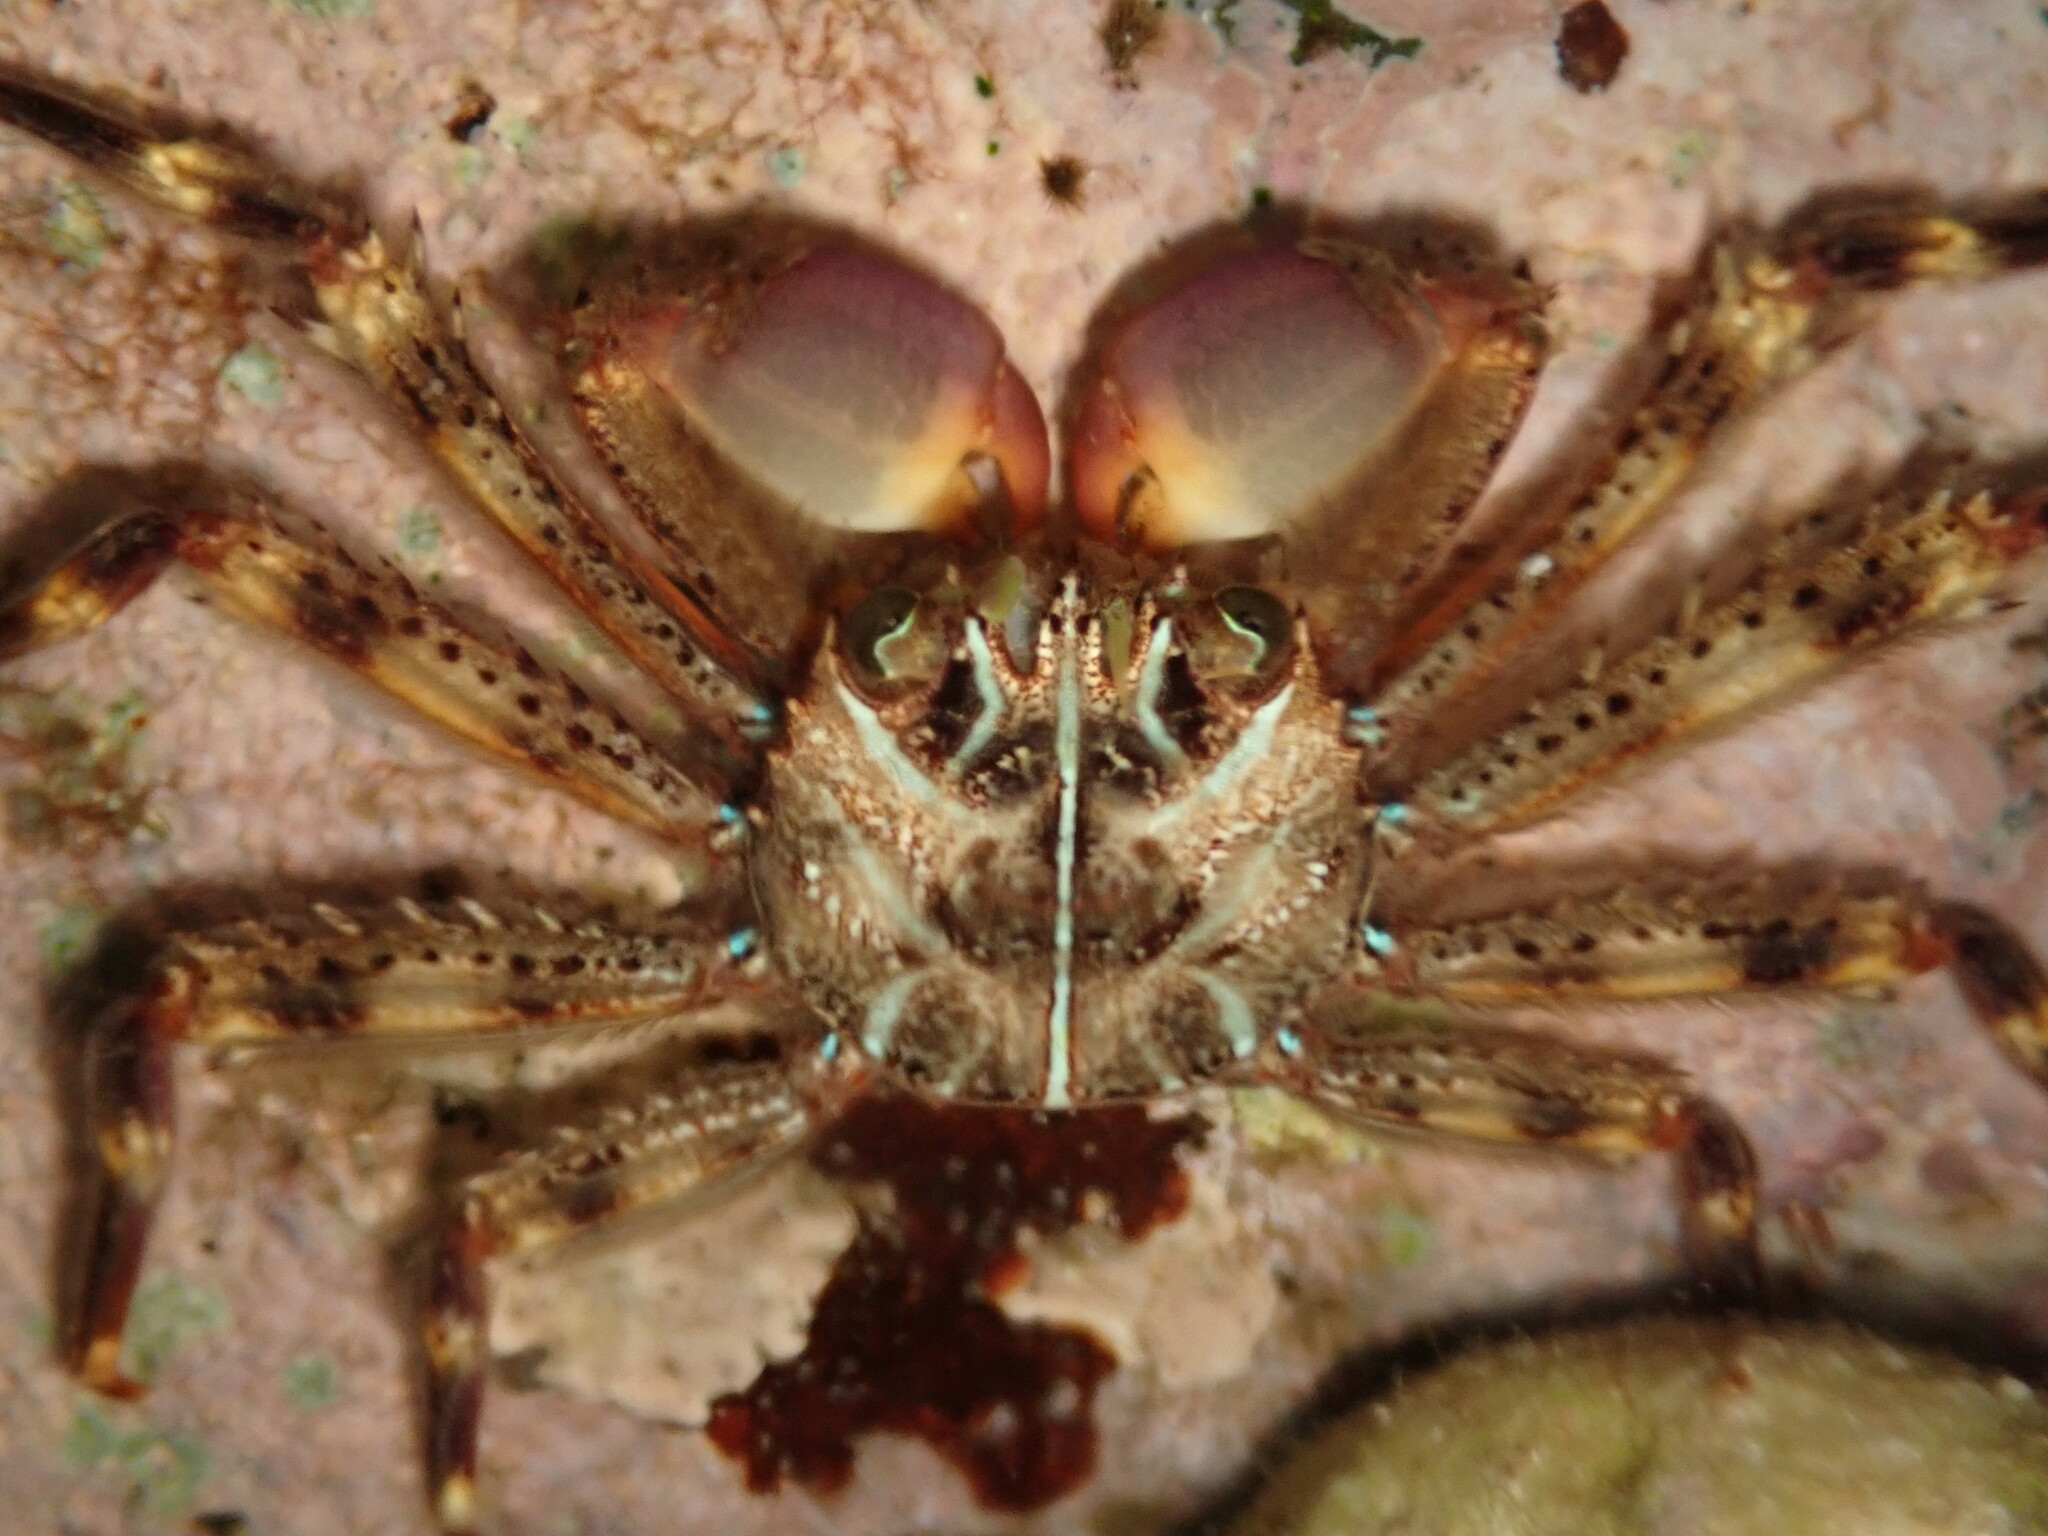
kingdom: Animalia
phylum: Arthropoda
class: Malacostraca
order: Decapoda
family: Percnidae
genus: Percnon
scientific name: Percnon planissimum
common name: Flat rock crab
